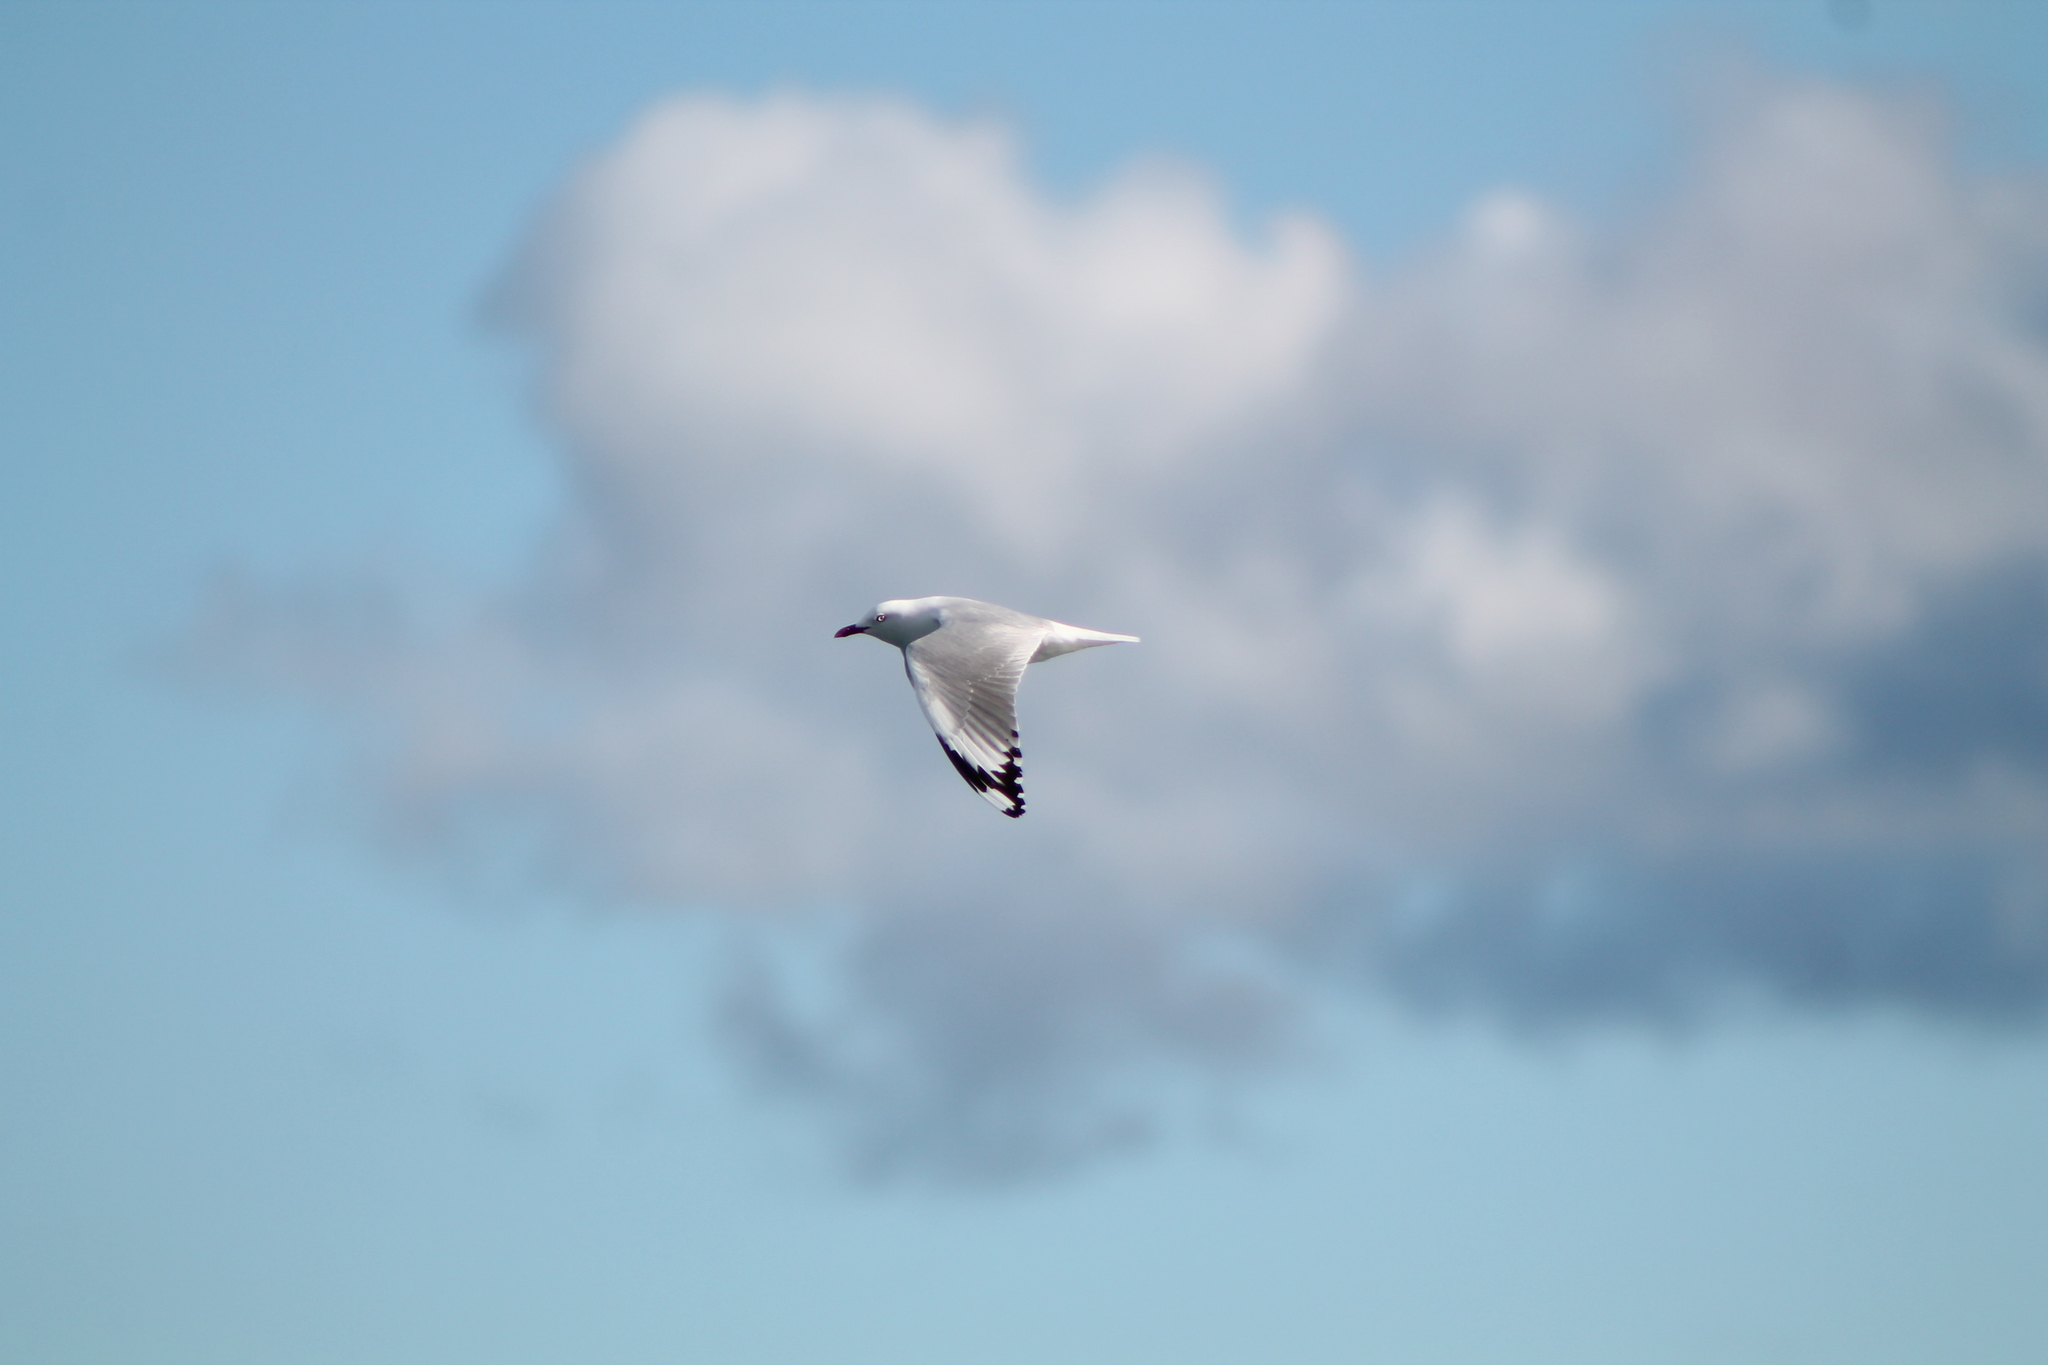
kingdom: Animalia
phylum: Chordata
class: Aves
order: Charadriiformes
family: Laridae
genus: Chroicocephalus
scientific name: Chroicocephalus novaehollandiae
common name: Silver gull
